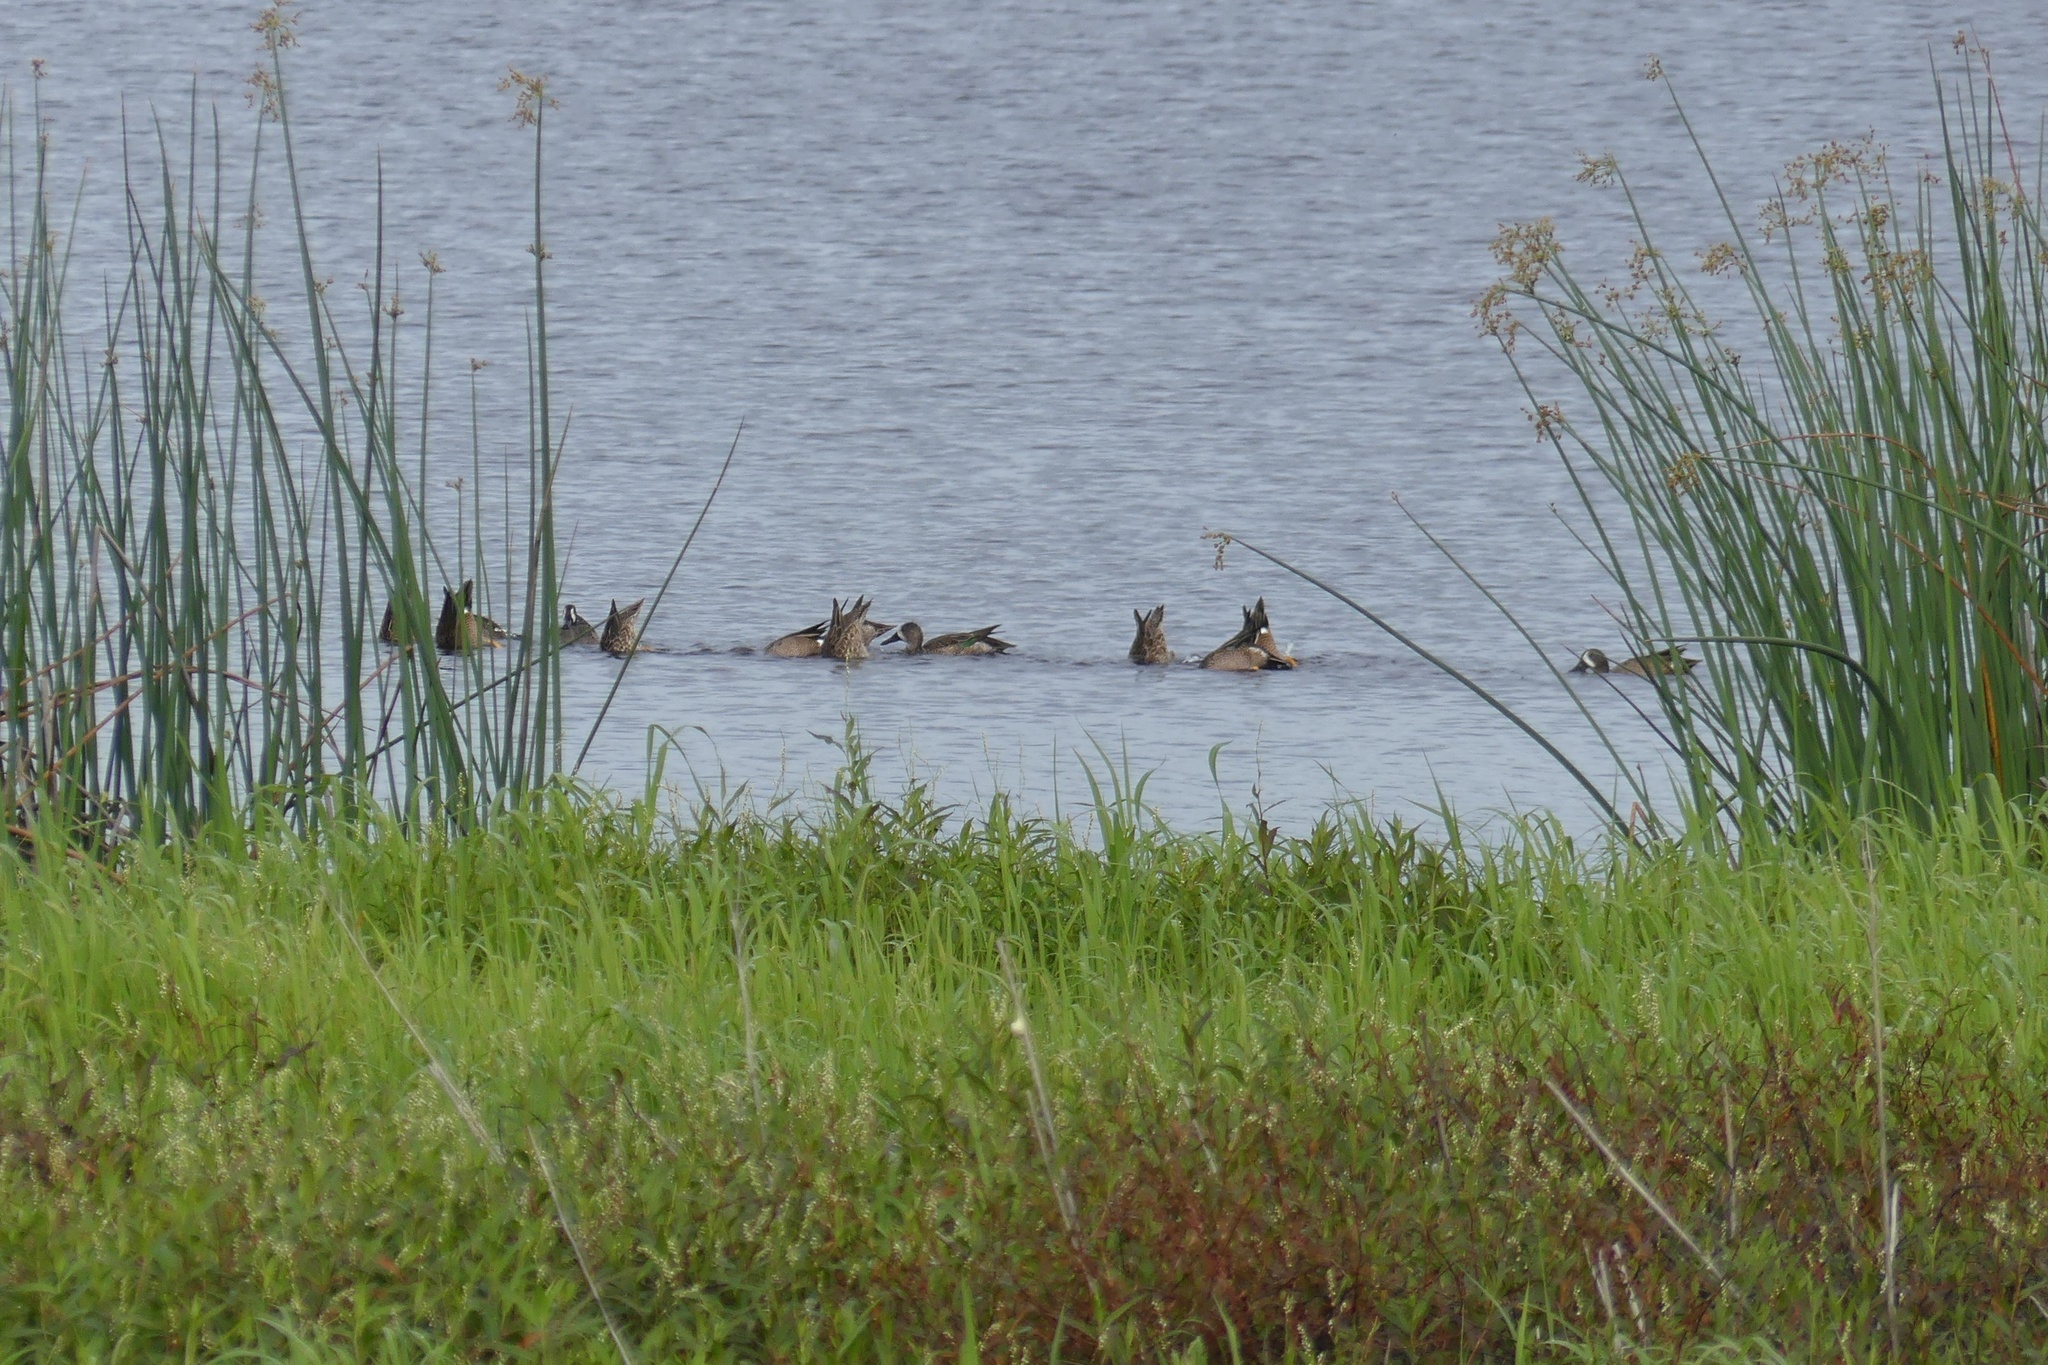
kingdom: Animalia
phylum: Chordata
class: Aves
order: Anseriformes
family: Anatidae
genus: Spatula
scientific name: Spatula discors
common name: Blue-winged teal
